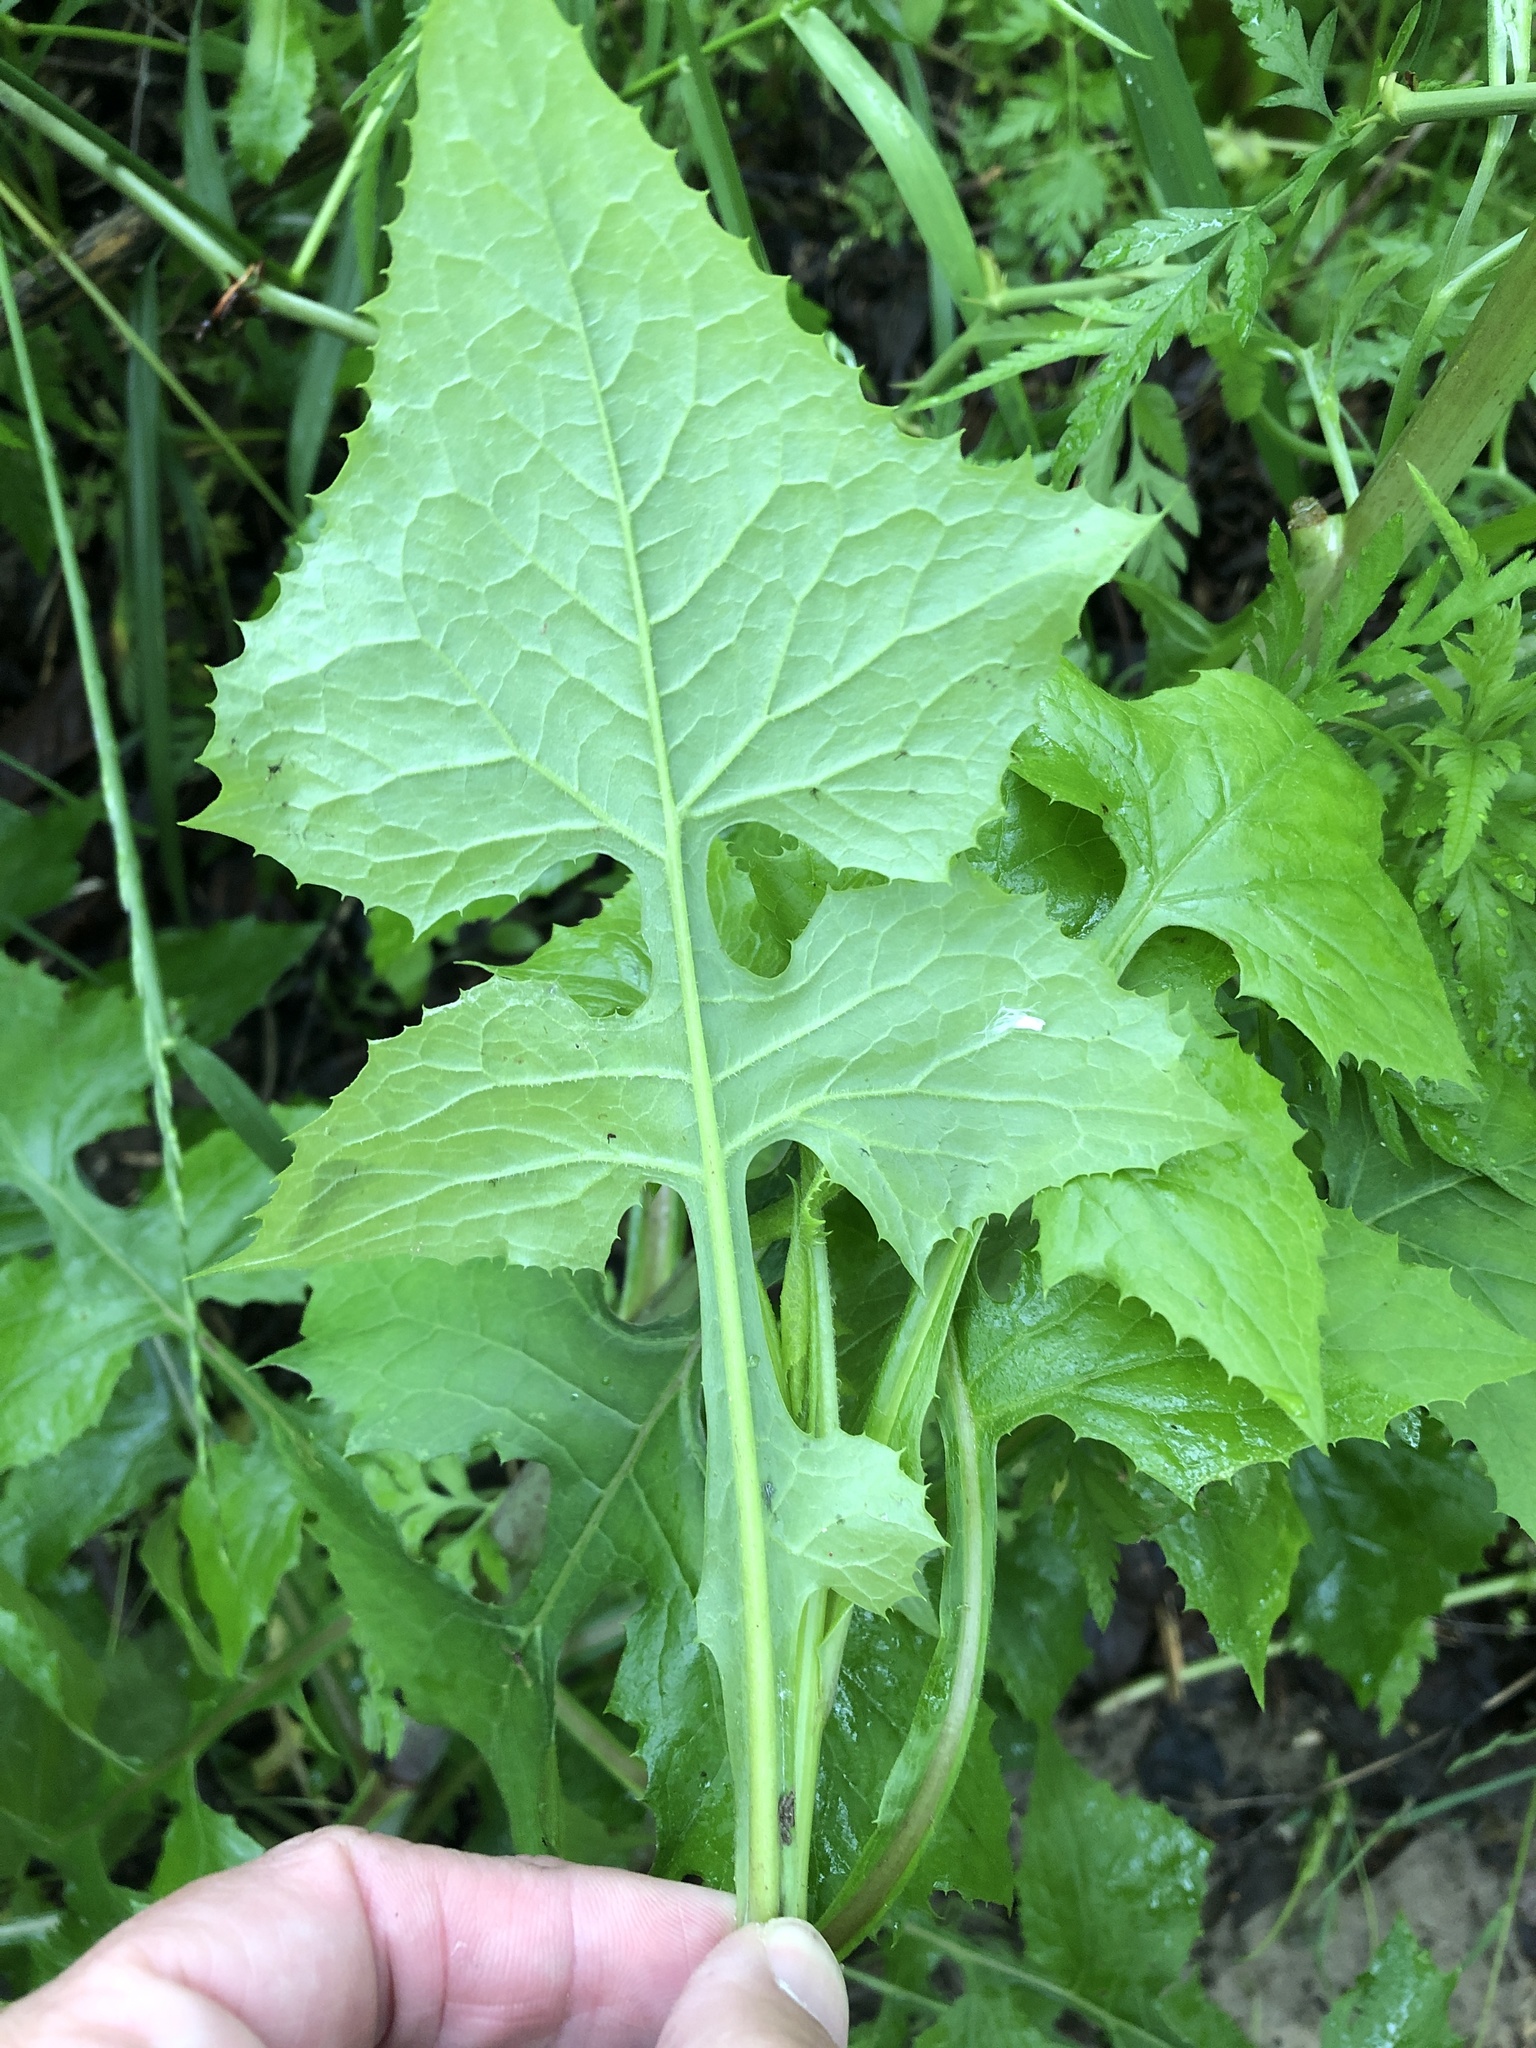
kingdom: Plantae
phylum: Tracheophyta
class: Magnoliopsida
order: Asterales
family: Asteraceae
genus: Lactuca
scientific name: Lactuca floridana
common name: Woodland lettuce
